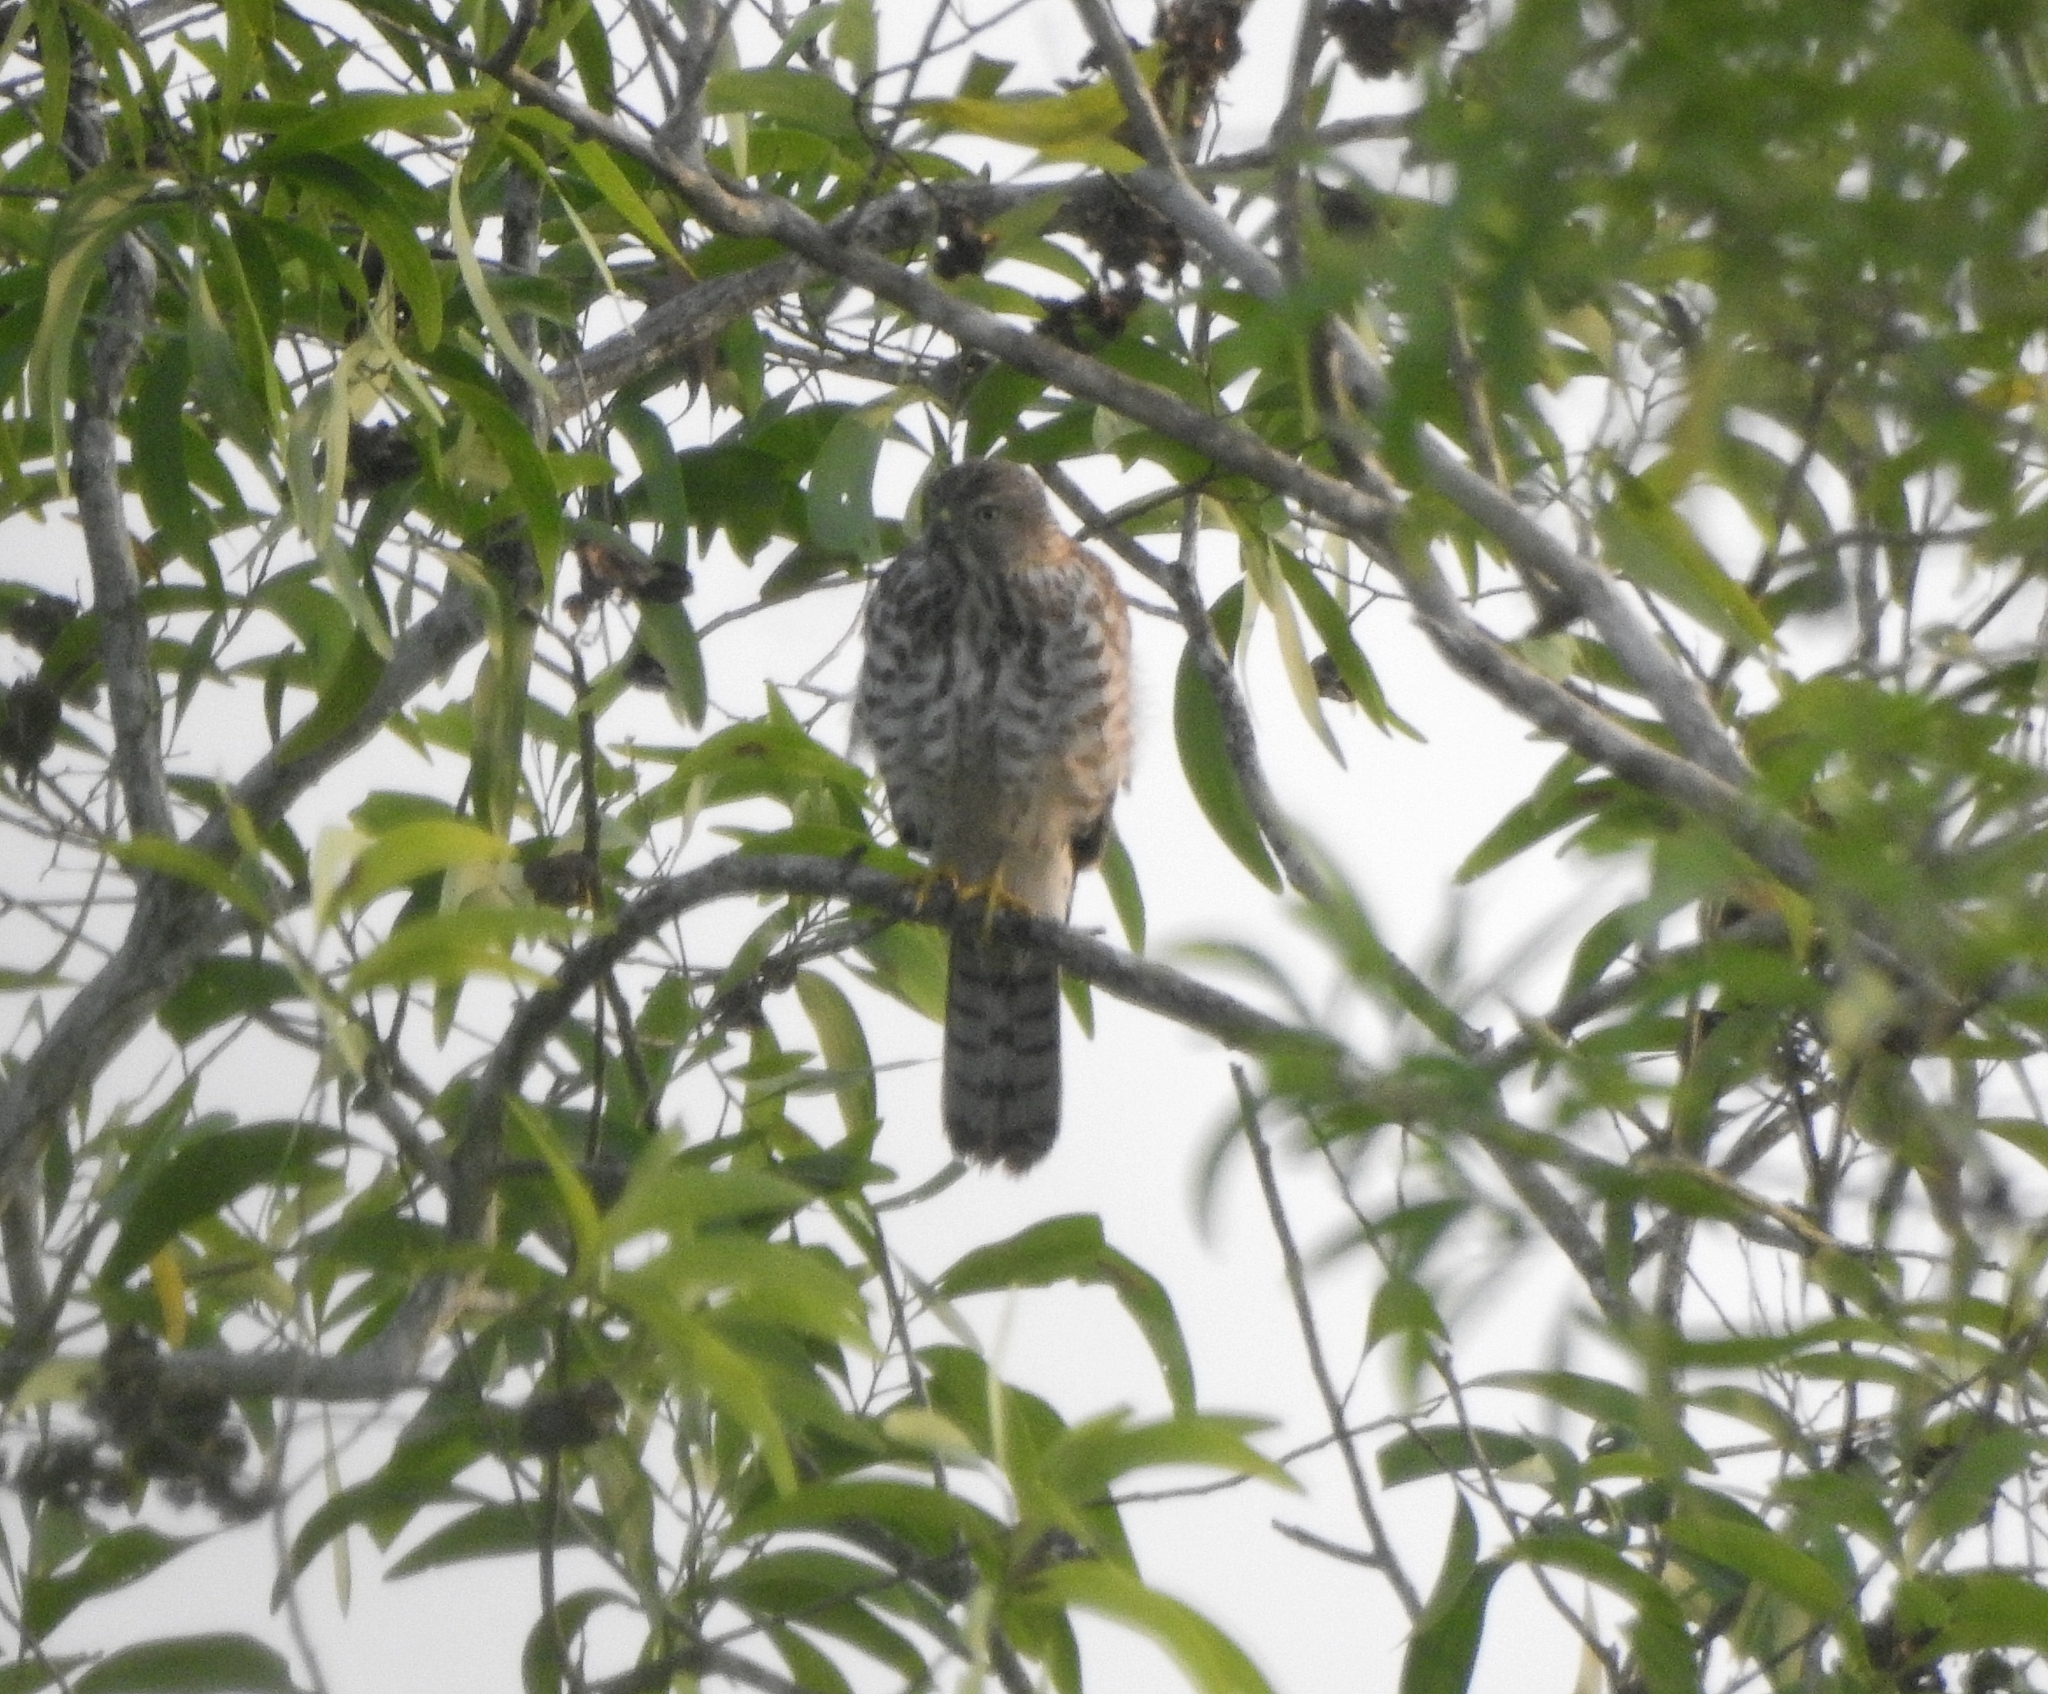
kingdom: Animalia
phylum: Chordata
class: Aves
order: Accipitriformes
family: Accipitridae
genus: Accipiter
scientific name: Accipiter badius
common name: Shikra
